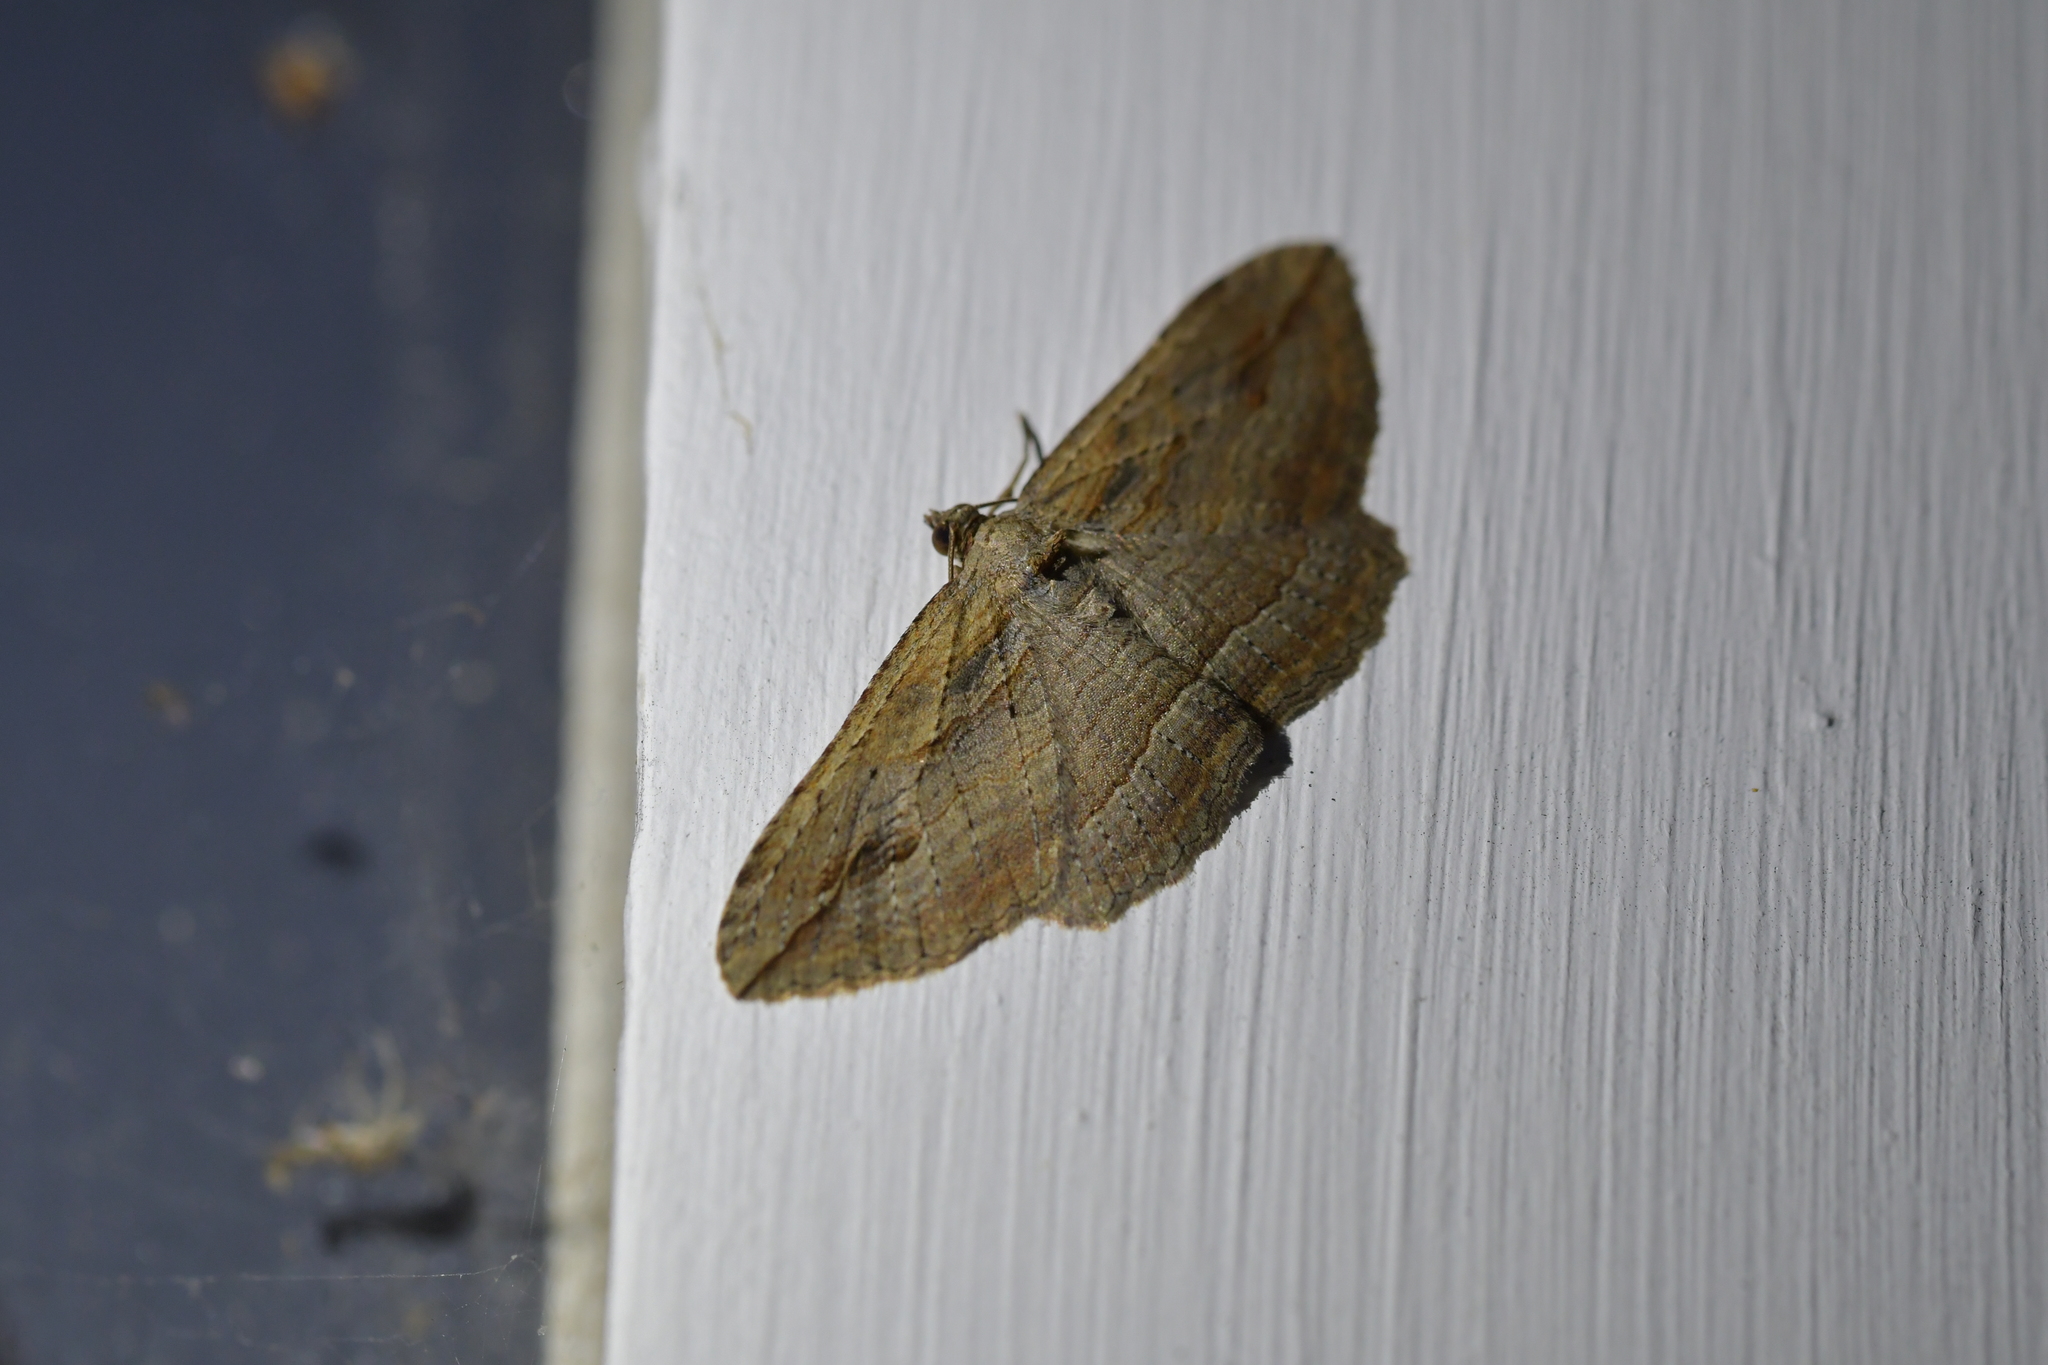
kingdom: Animalia
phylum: Arthropoda
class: Insecta
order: Lepidoptera
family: Geometridae
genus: Austrocidaria
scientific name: Austrocidaria gobiata
